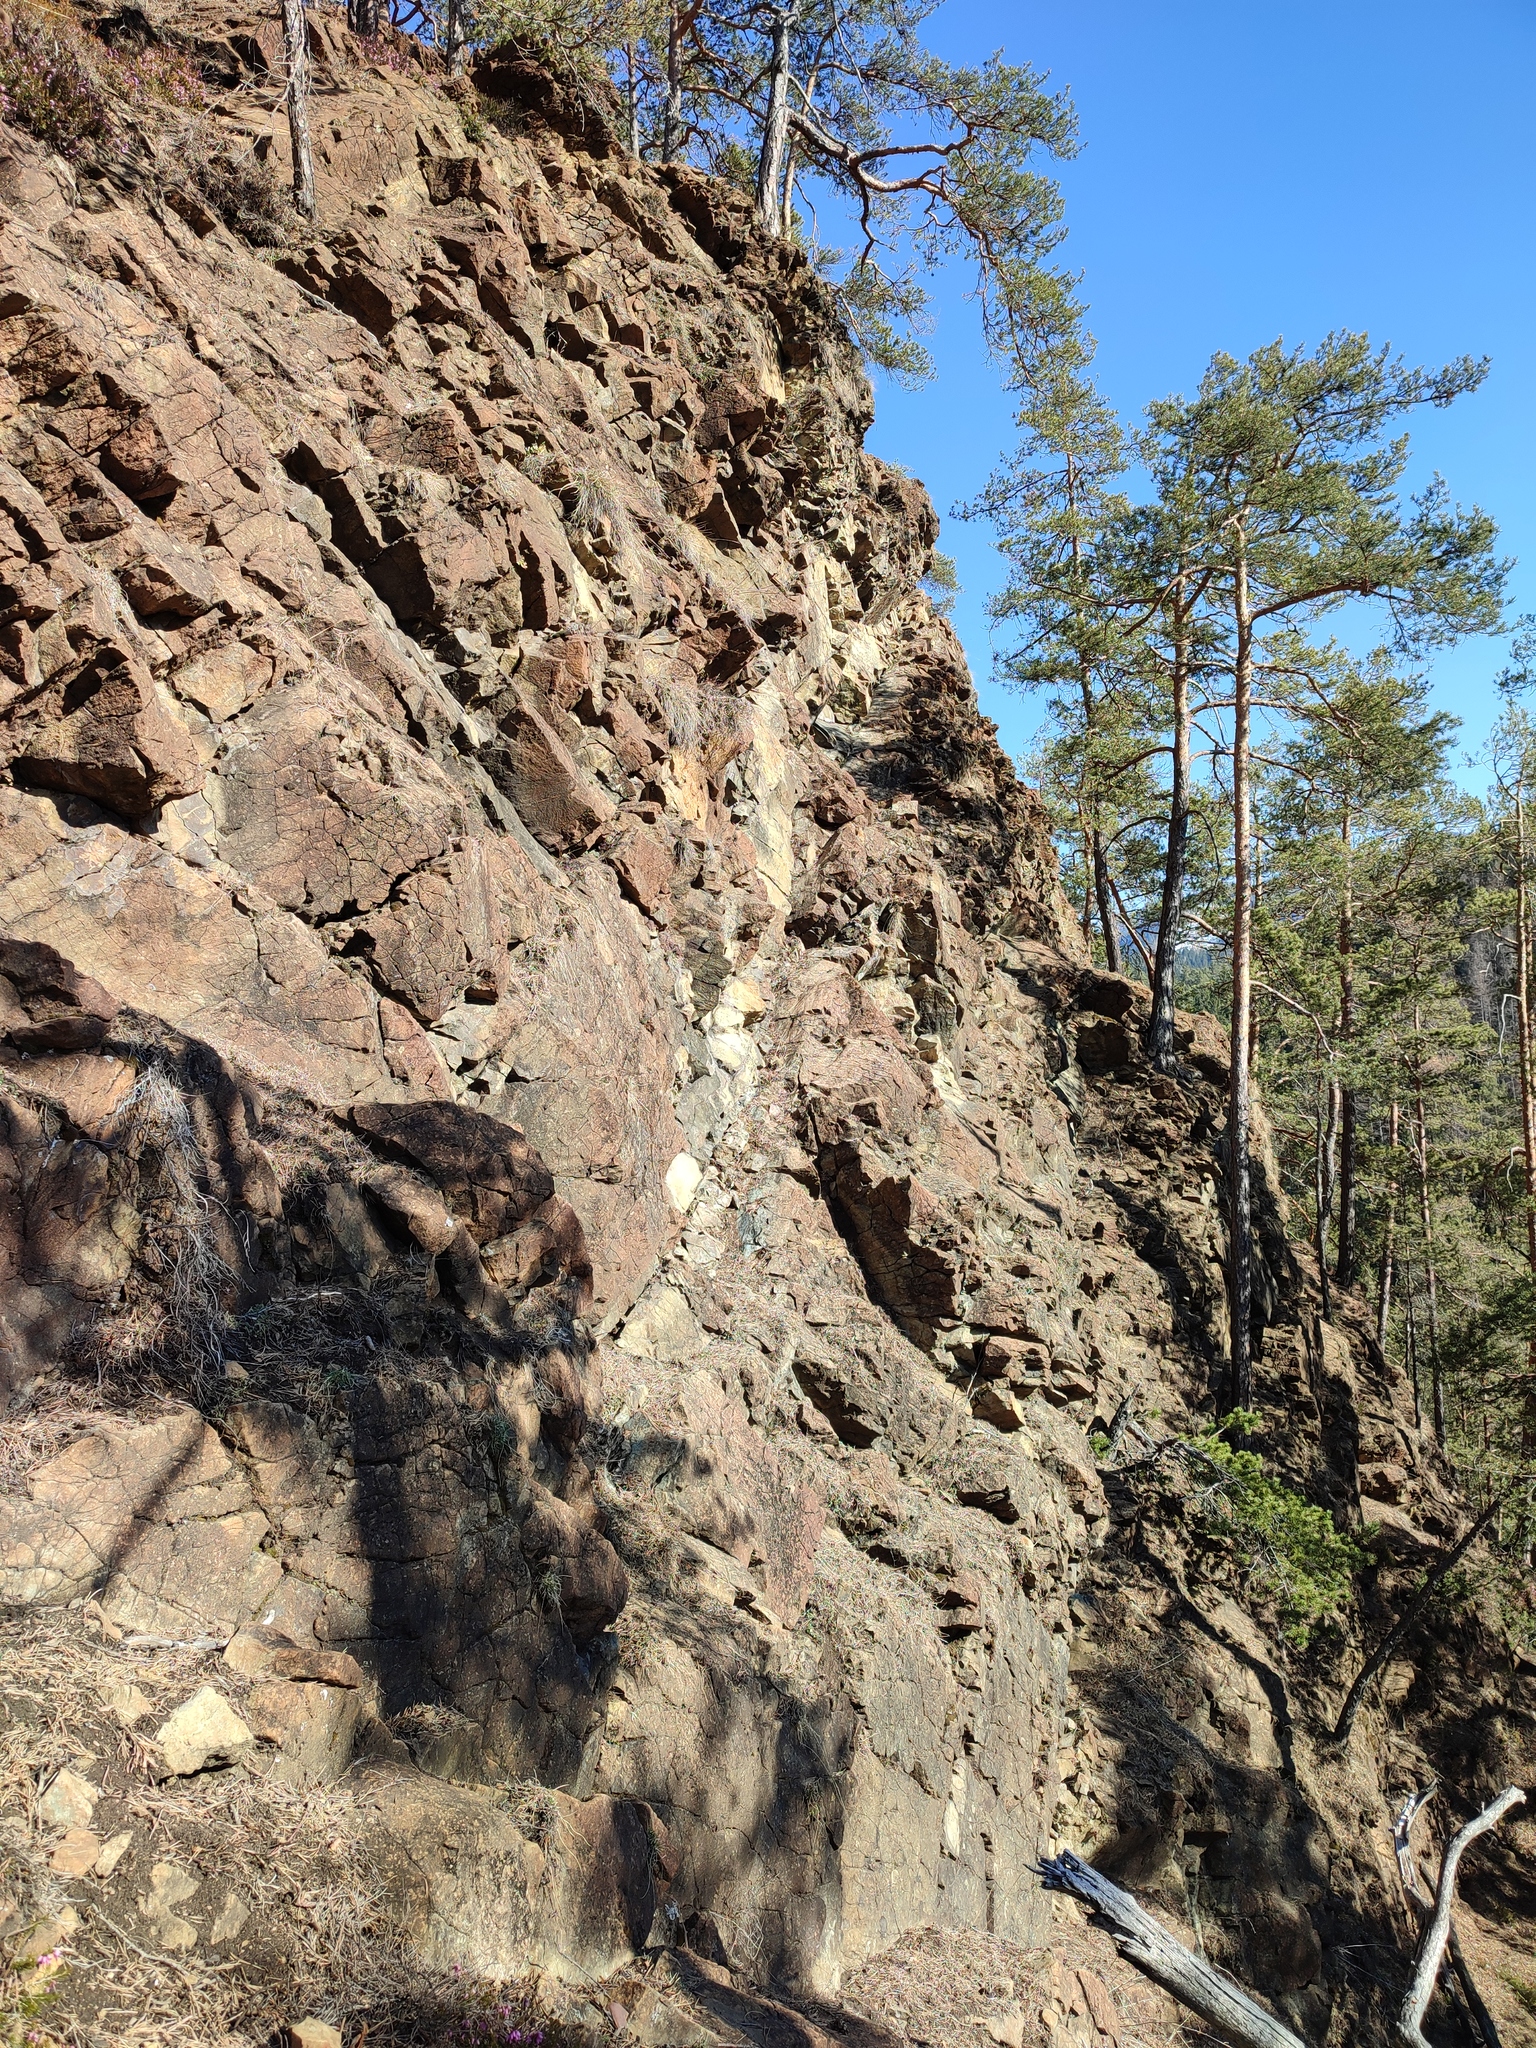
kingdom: Plantae
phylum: Tracheophyta
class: Pinopsida
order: Pinales
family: Pinaceae
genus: Pinus
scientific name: Pinus sylvestris
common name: Scots pine
